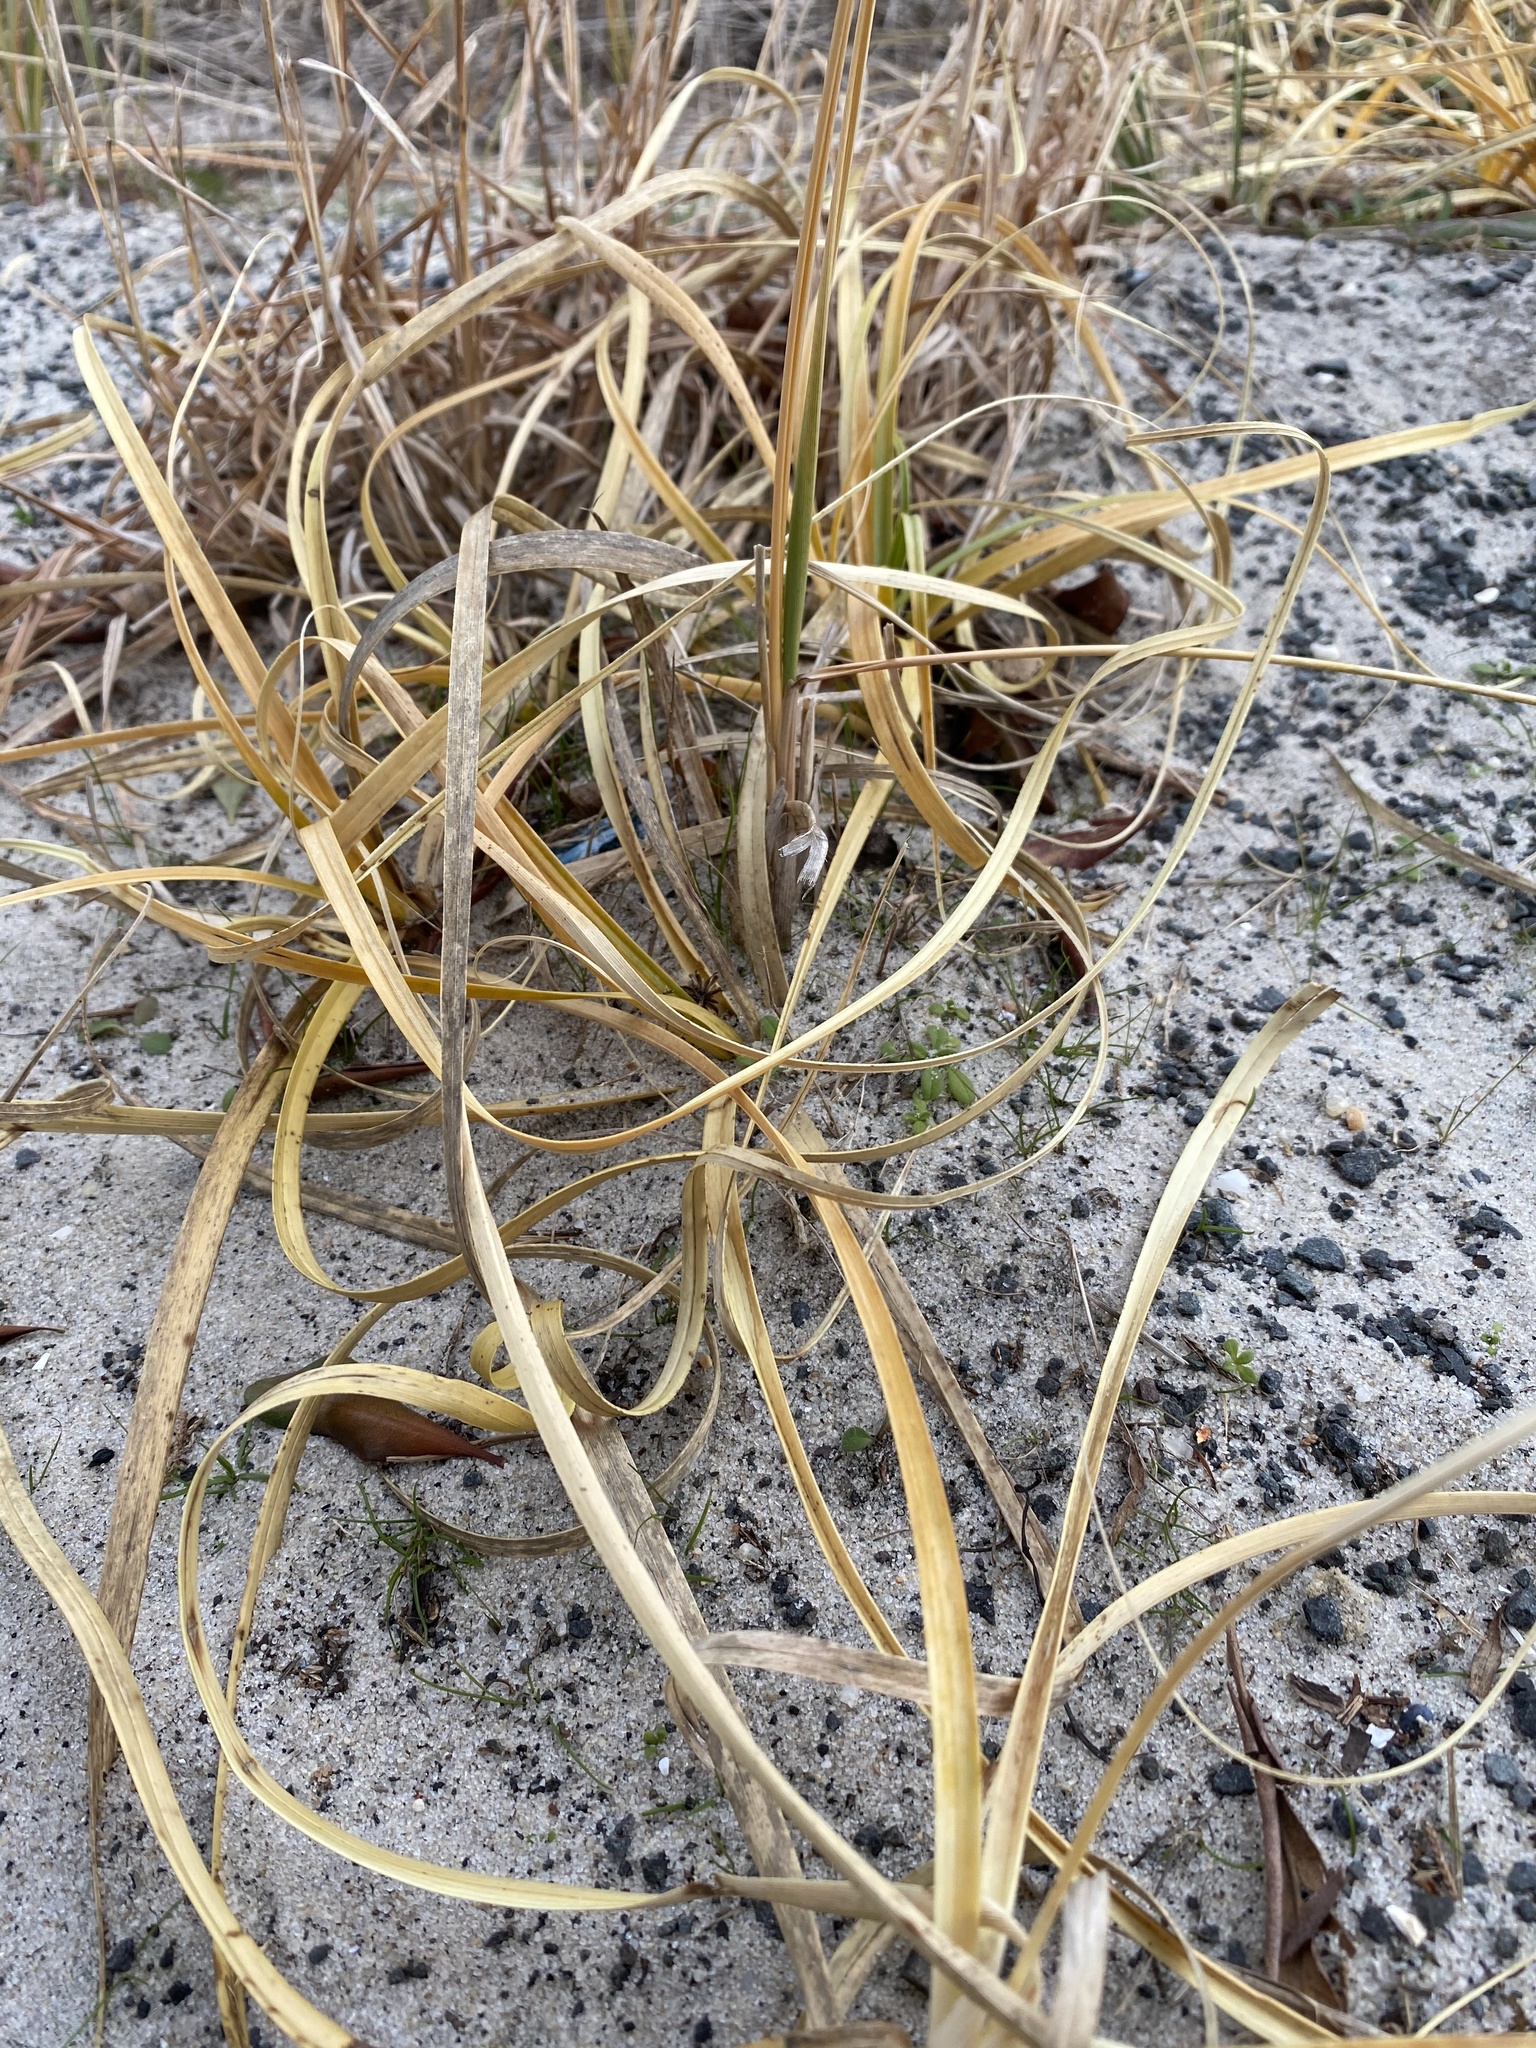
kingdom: Plantae
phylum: Tracheophyta
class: Liliopsida
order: Poales
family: Cyperaceae
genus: Carex
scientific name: Carex kobomugi
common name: Japanese sedge
